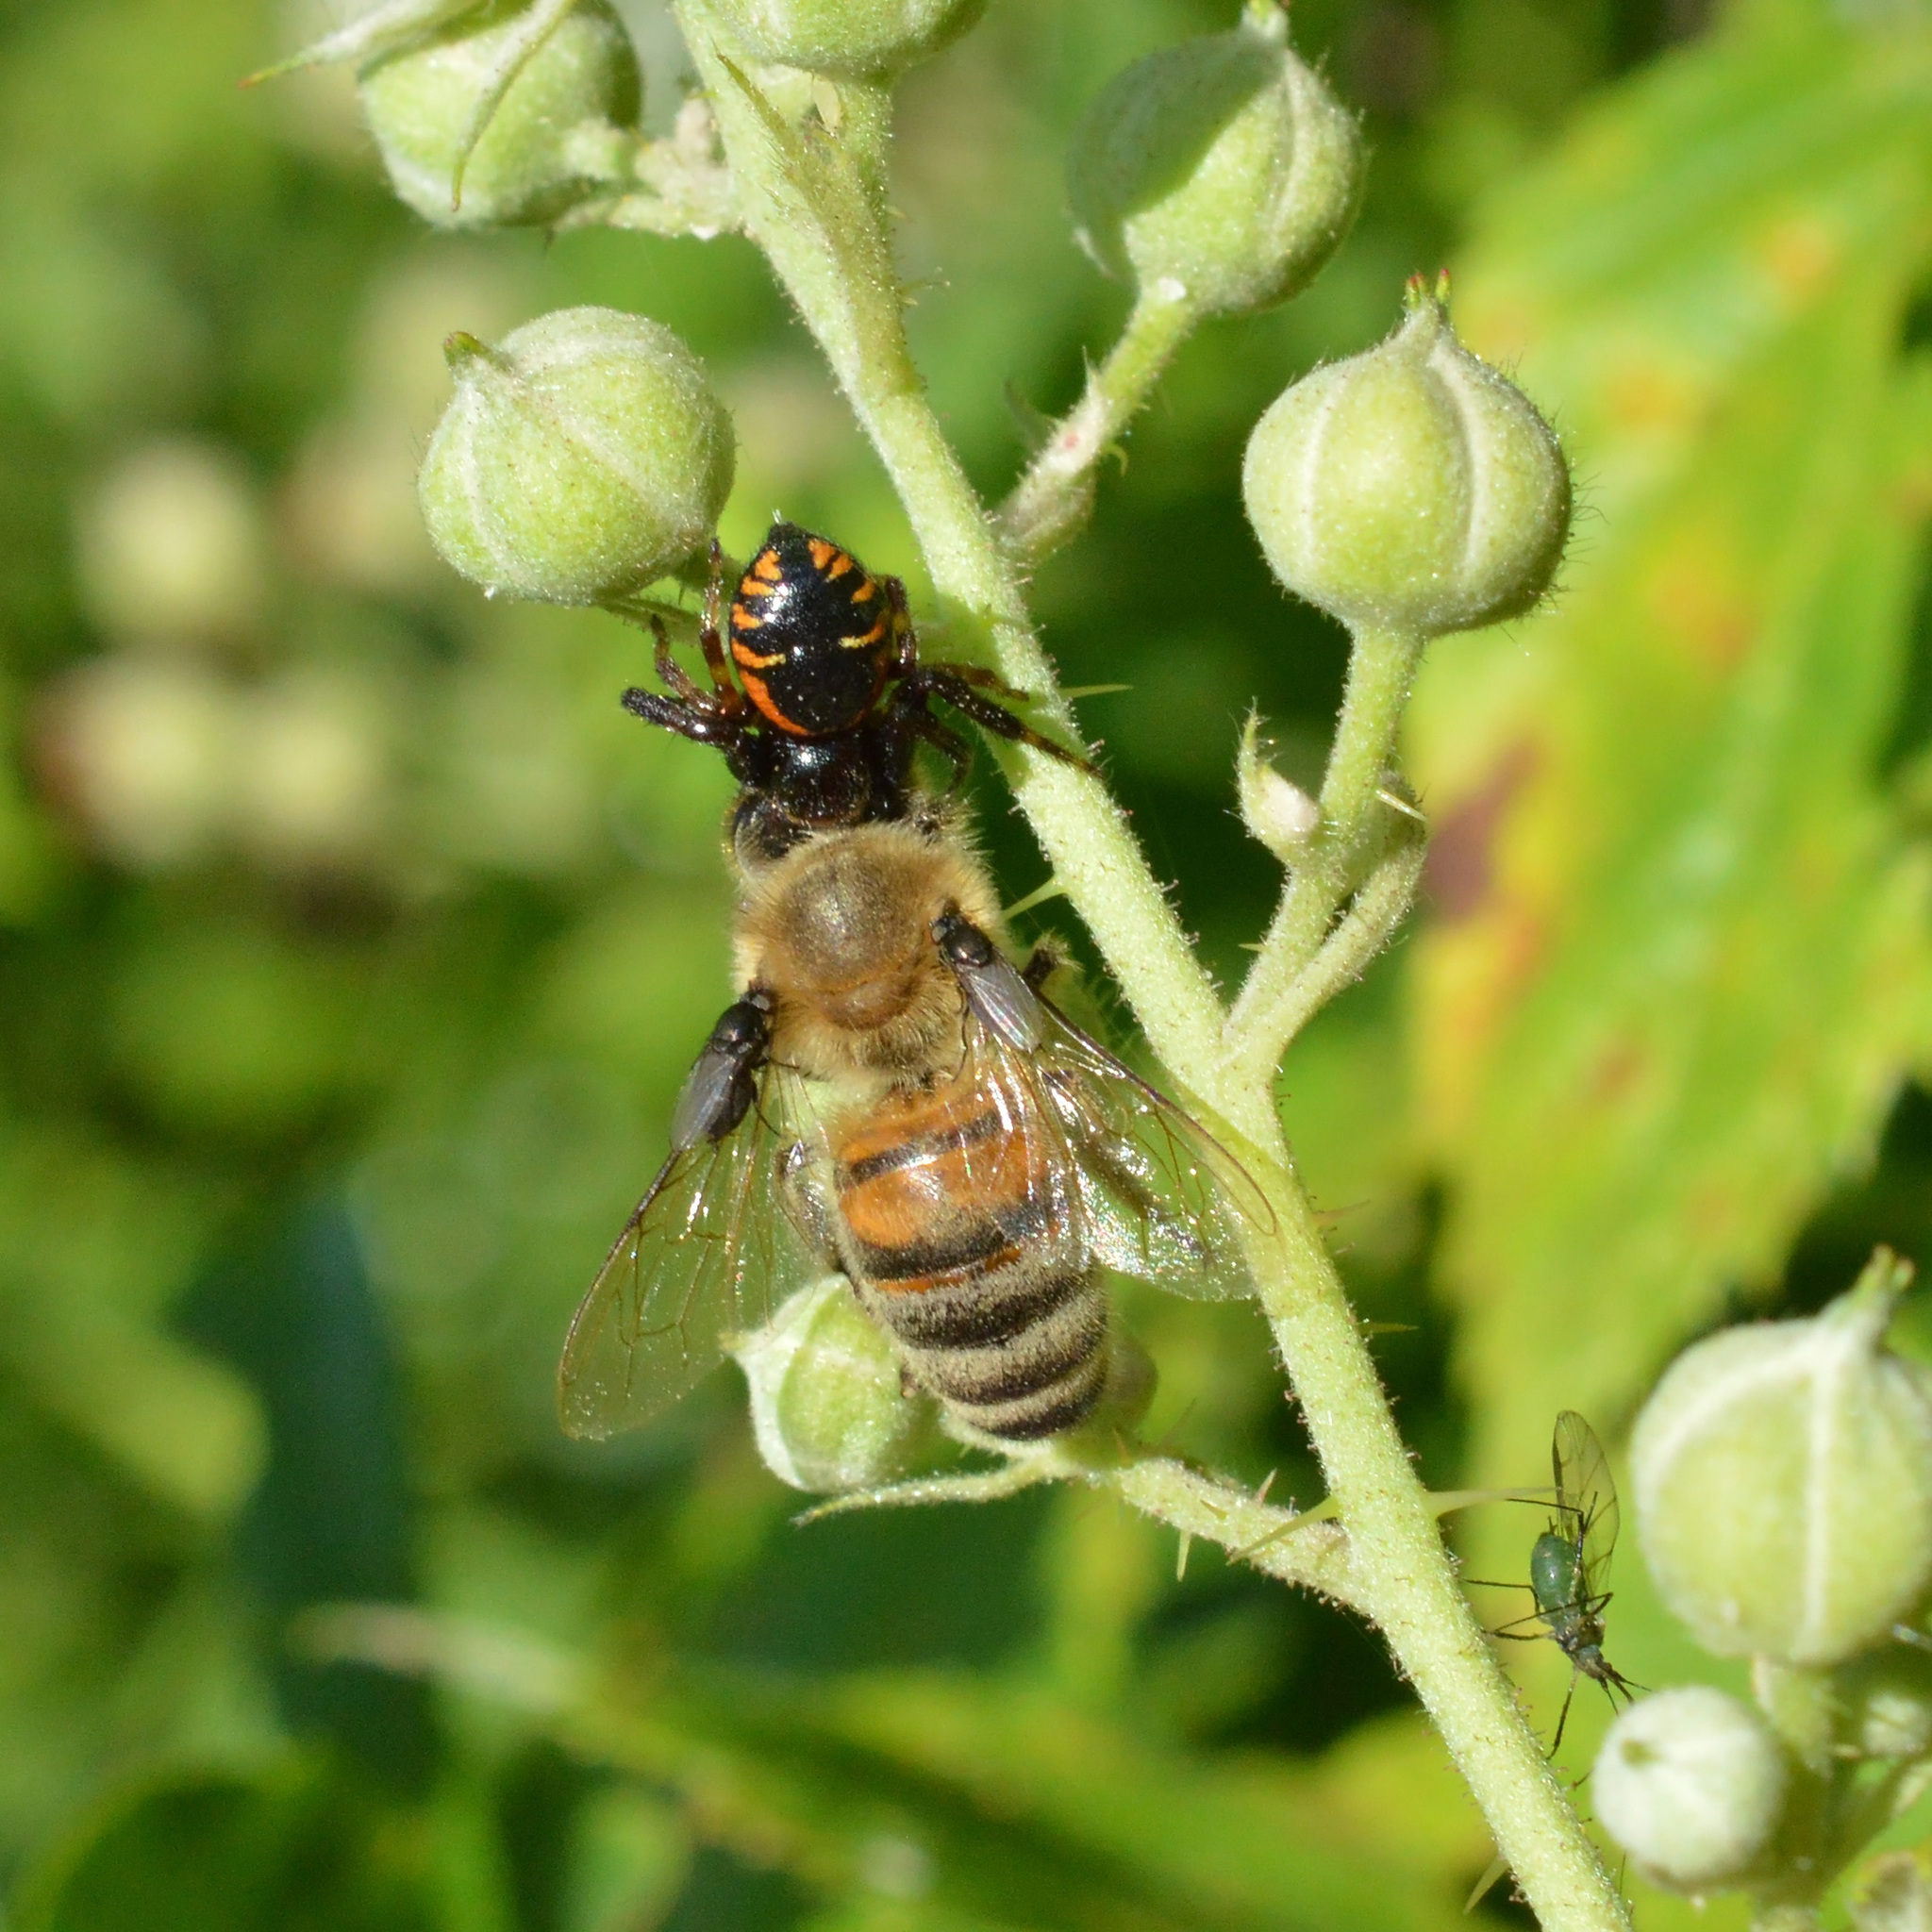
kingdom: Animalia
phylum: Arthropoda
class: Arachnida
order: Araneae
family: Thomisidae
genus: Synema
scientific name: Synema globosum
